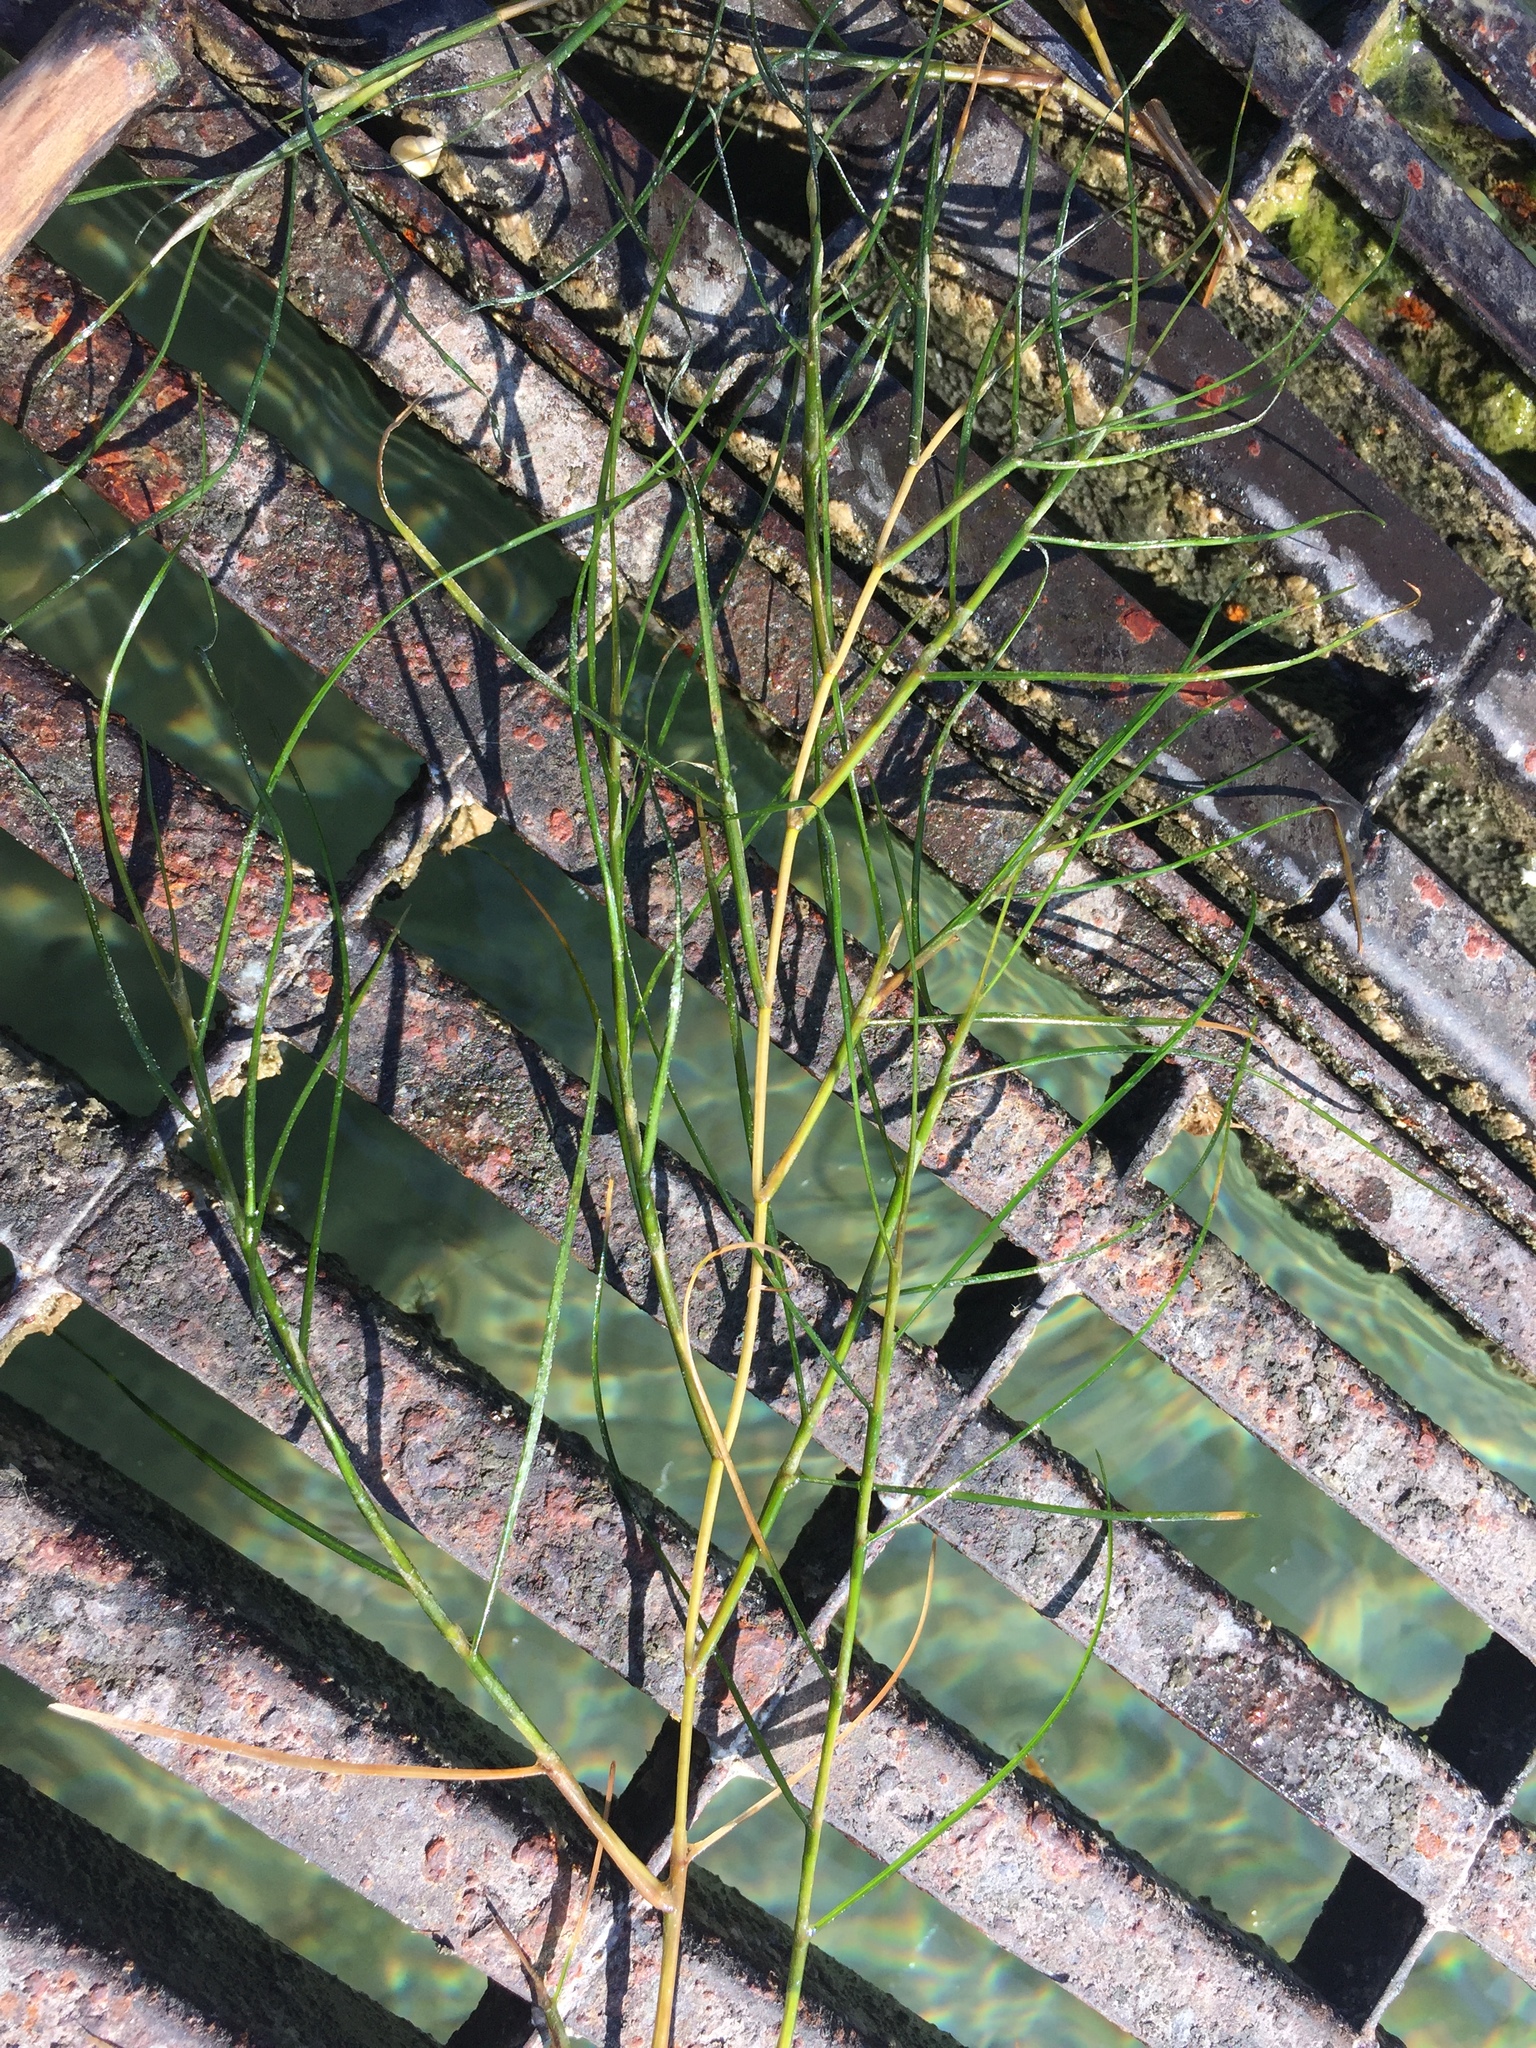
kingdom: Plantae
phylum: Tracheophyta
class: Liliopsida
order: Alismatales
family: Potamogetonaceae
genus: Stuckenia
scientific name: Stuckenia pectinata
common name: Sago pondweed
